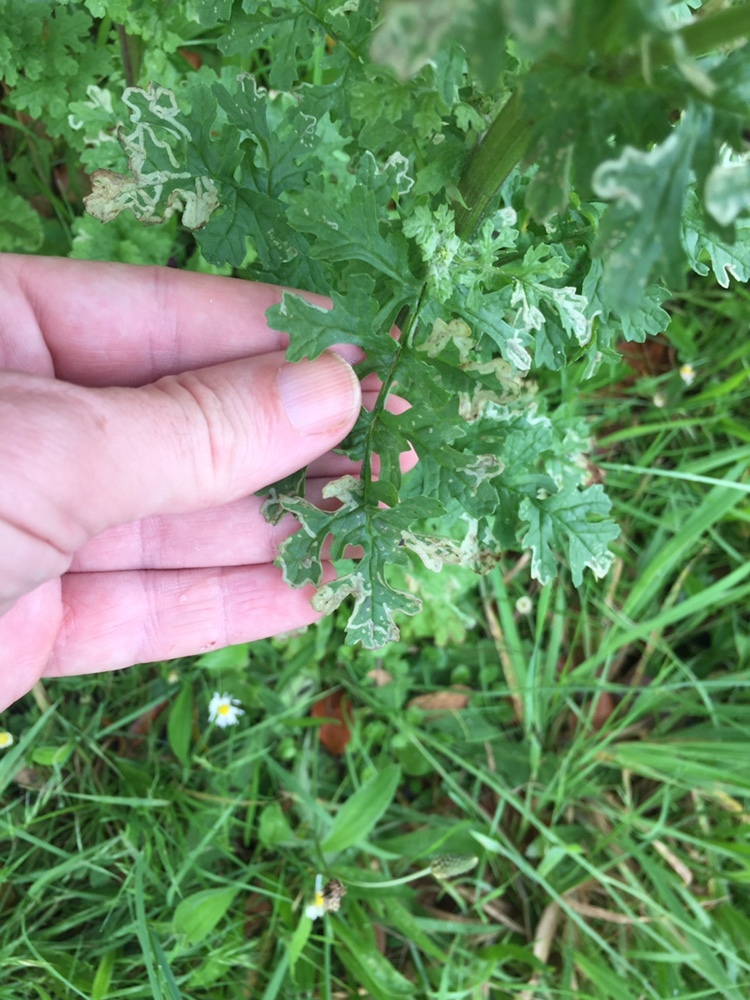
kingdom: Plantae
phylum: Tracheophyta
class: Magnoliopsida
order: Asterales
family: Asteraceae
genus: Jacobaea
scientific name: Jacobaea vulgaris
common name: Stinking willie
